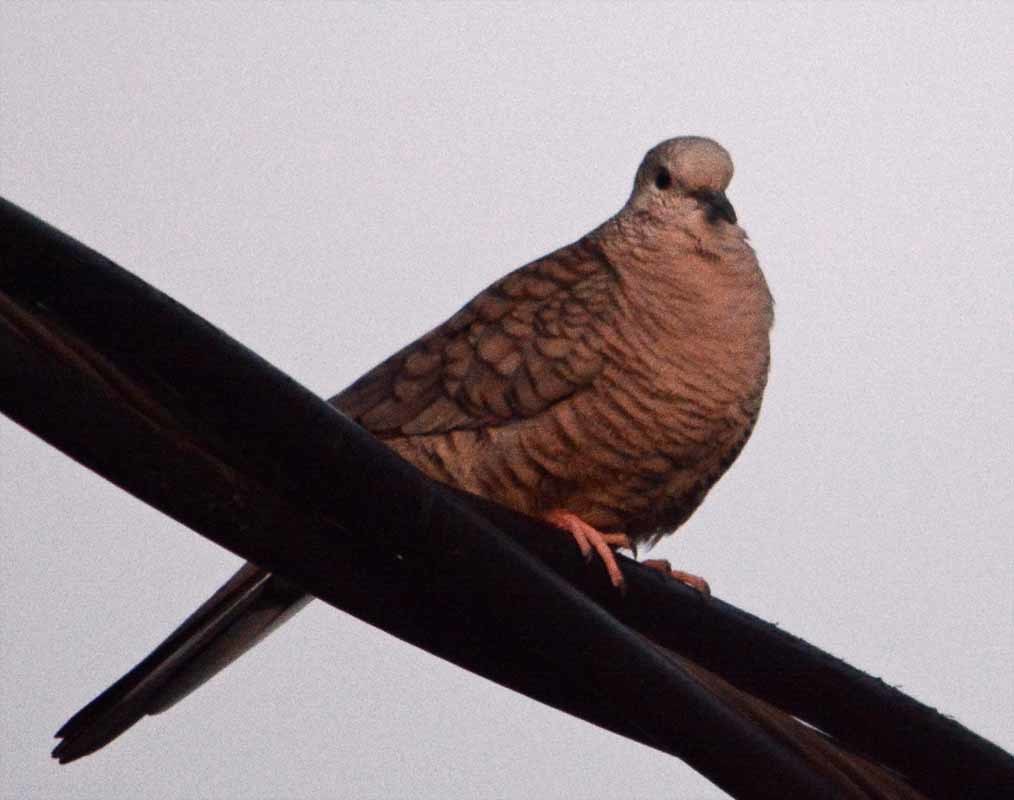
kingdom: Animalia
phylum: Chordata
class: Aves
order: Columbiformes
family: Columbidae
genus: Columbina
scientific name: Columbina inca
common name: Inca dove
